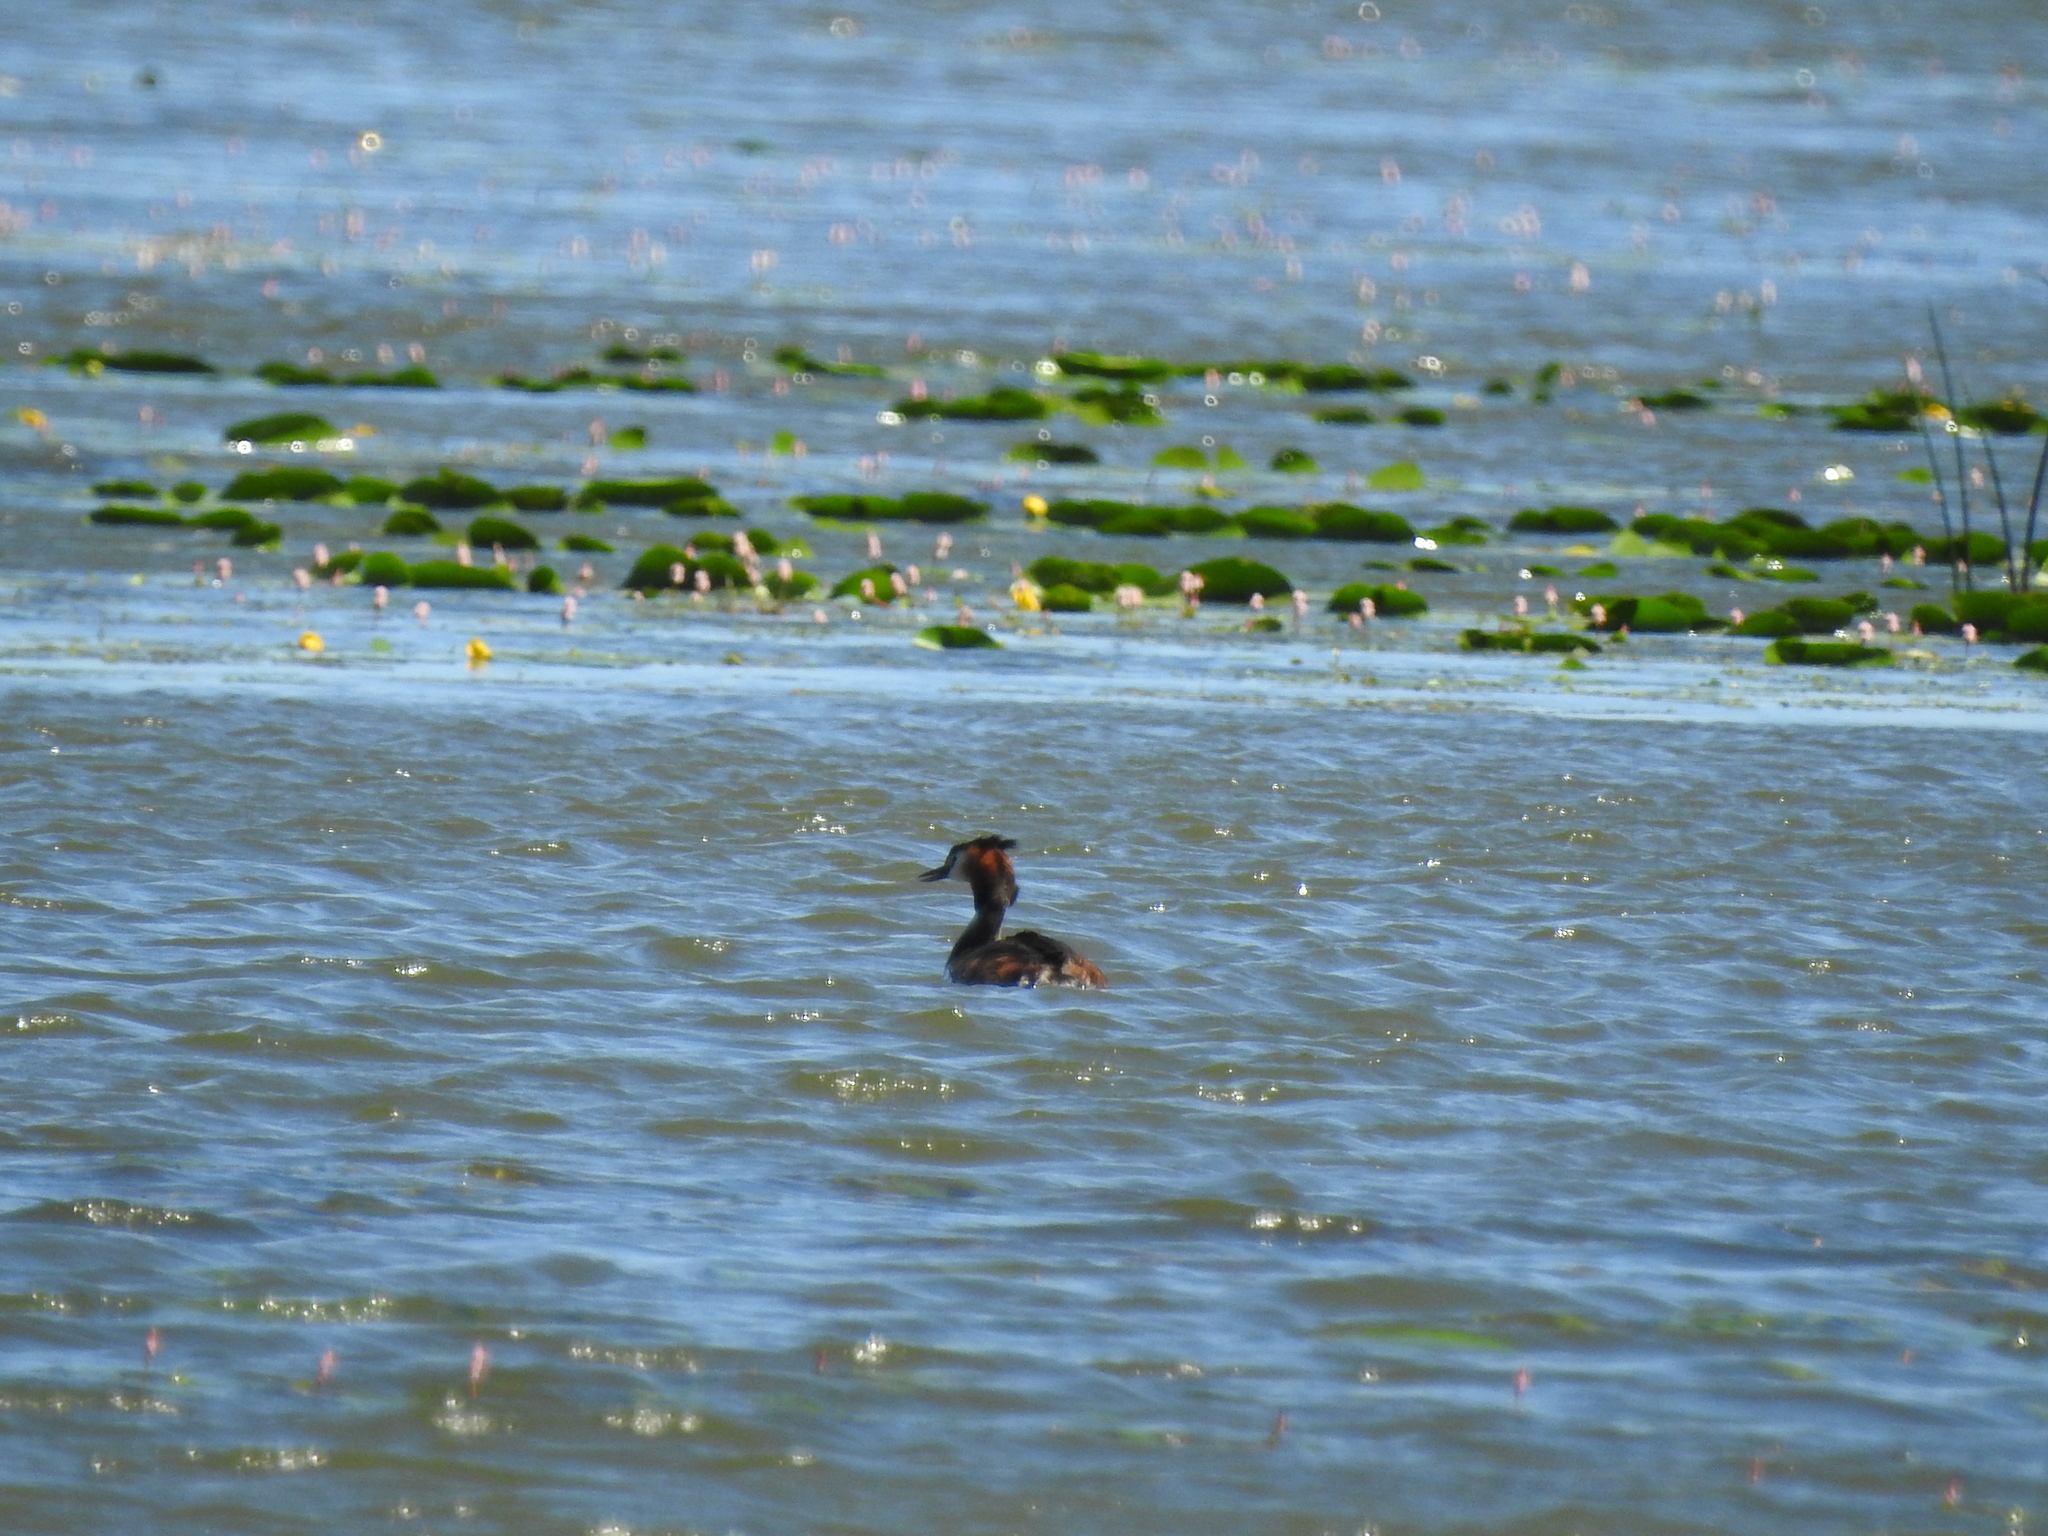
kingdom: Animalia
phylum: Chordata
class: Aves
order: Podicipediformes
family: Podicipedidae
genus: Podiceps
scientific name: Podiceps cristatus
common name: Great crested grebe
